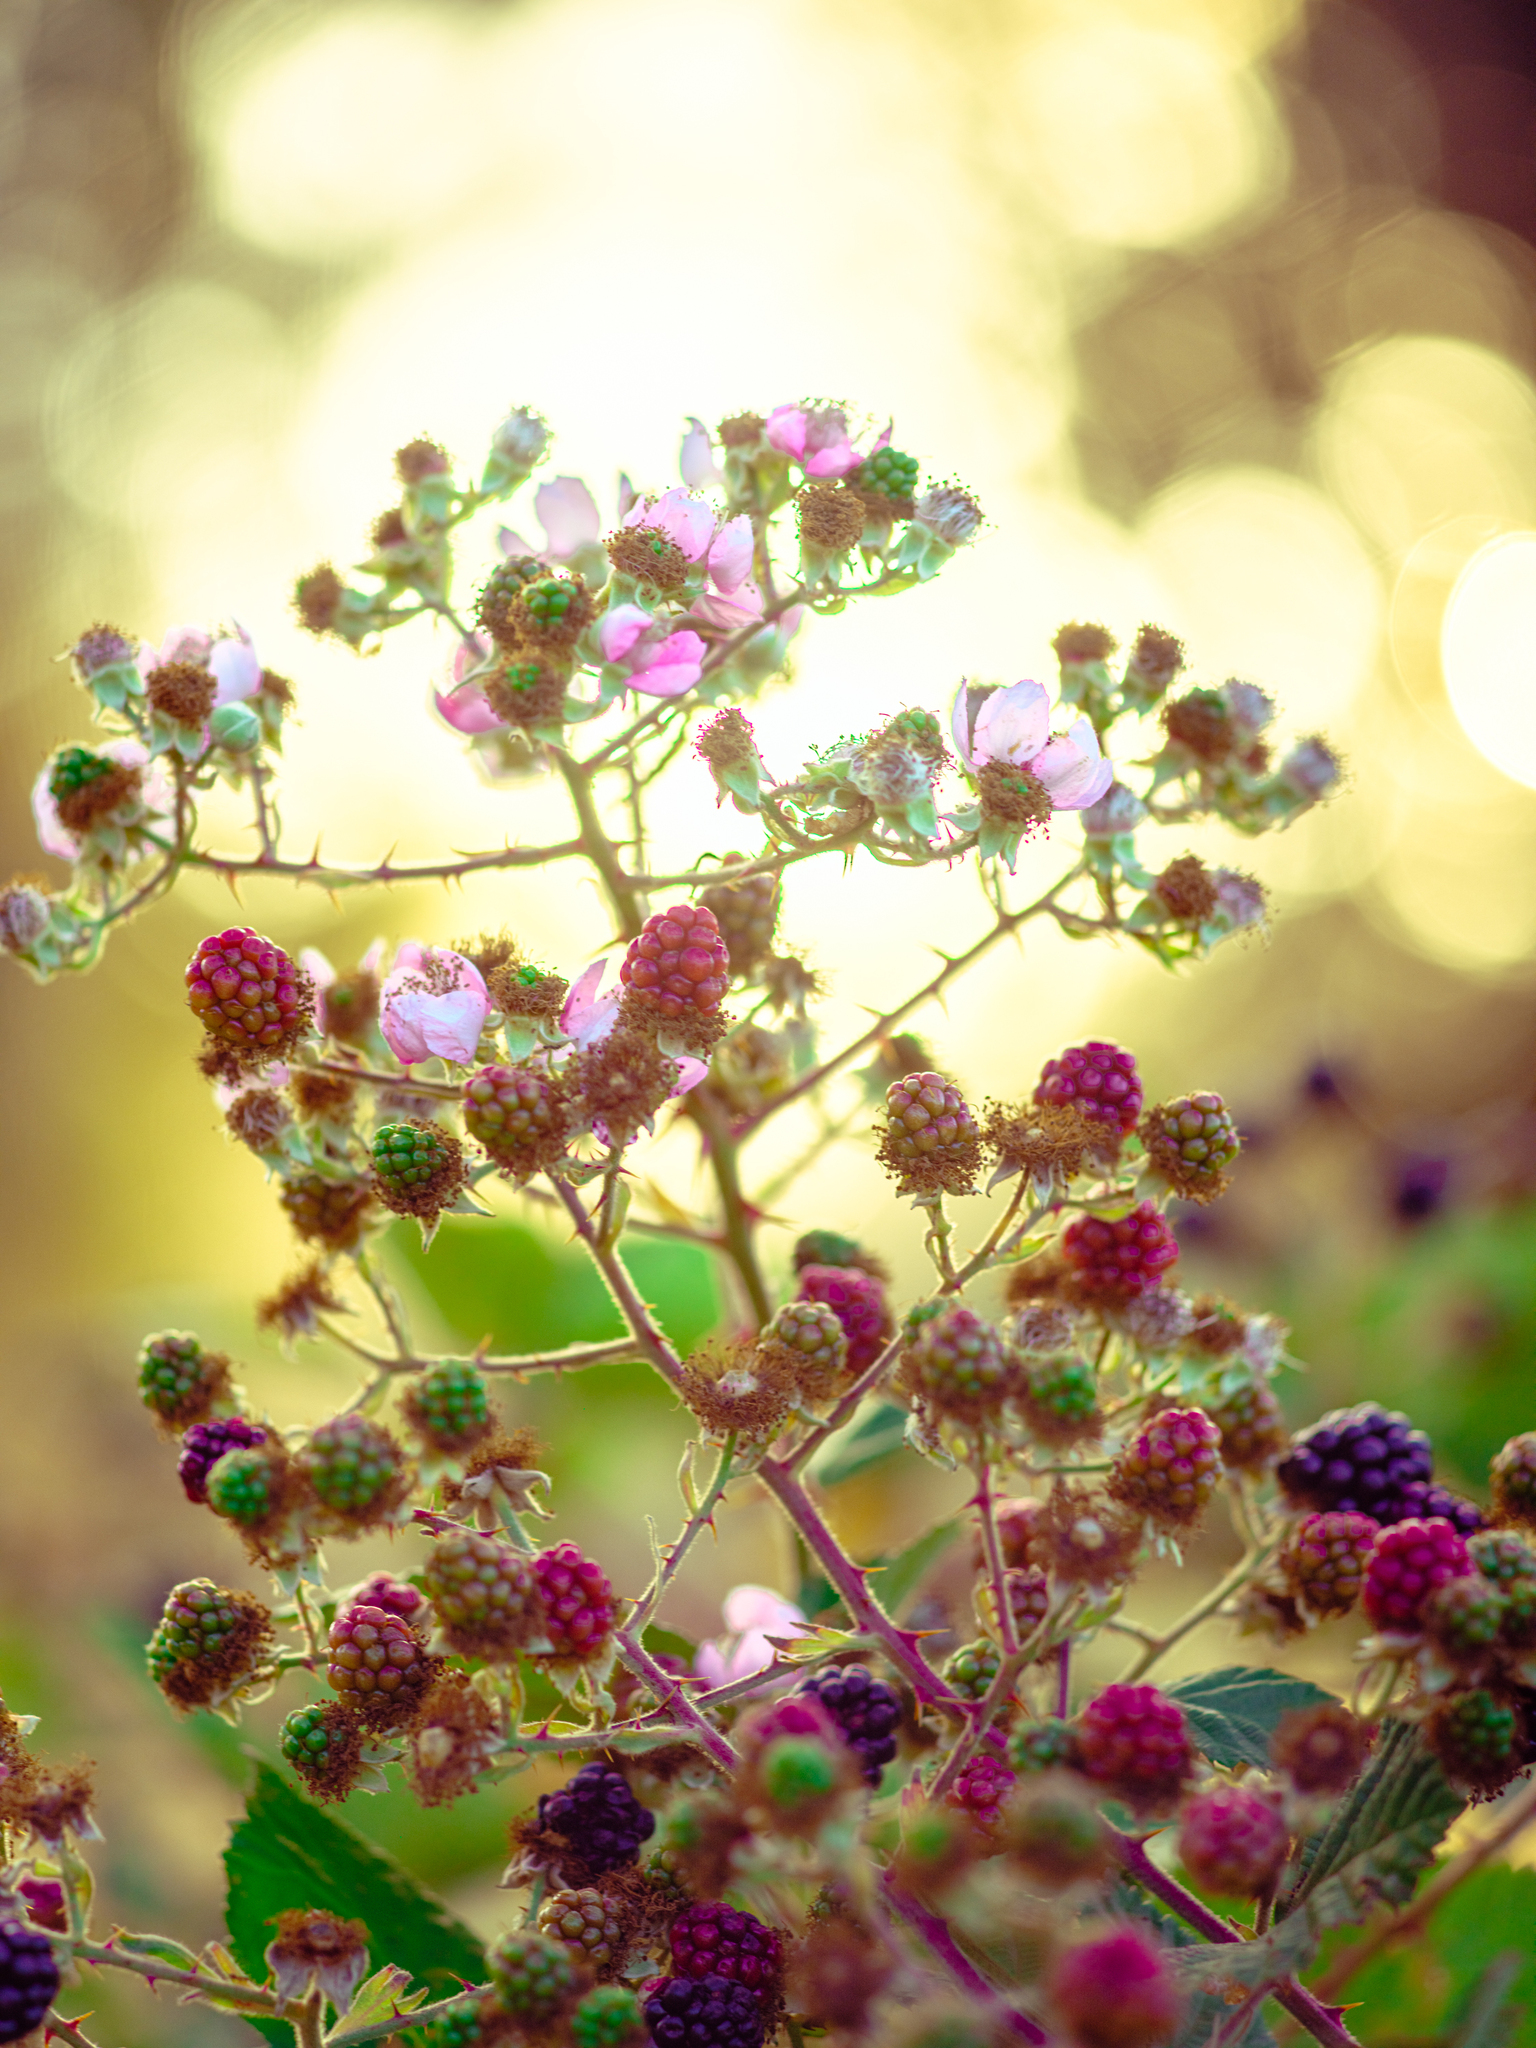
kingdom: Plantae
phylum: Tracheophyta
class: Magnoliopsida
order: Rosales
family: Rosaceae
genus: Rubus
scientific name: Rubus armeniacus
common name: Himalayan blackberry
